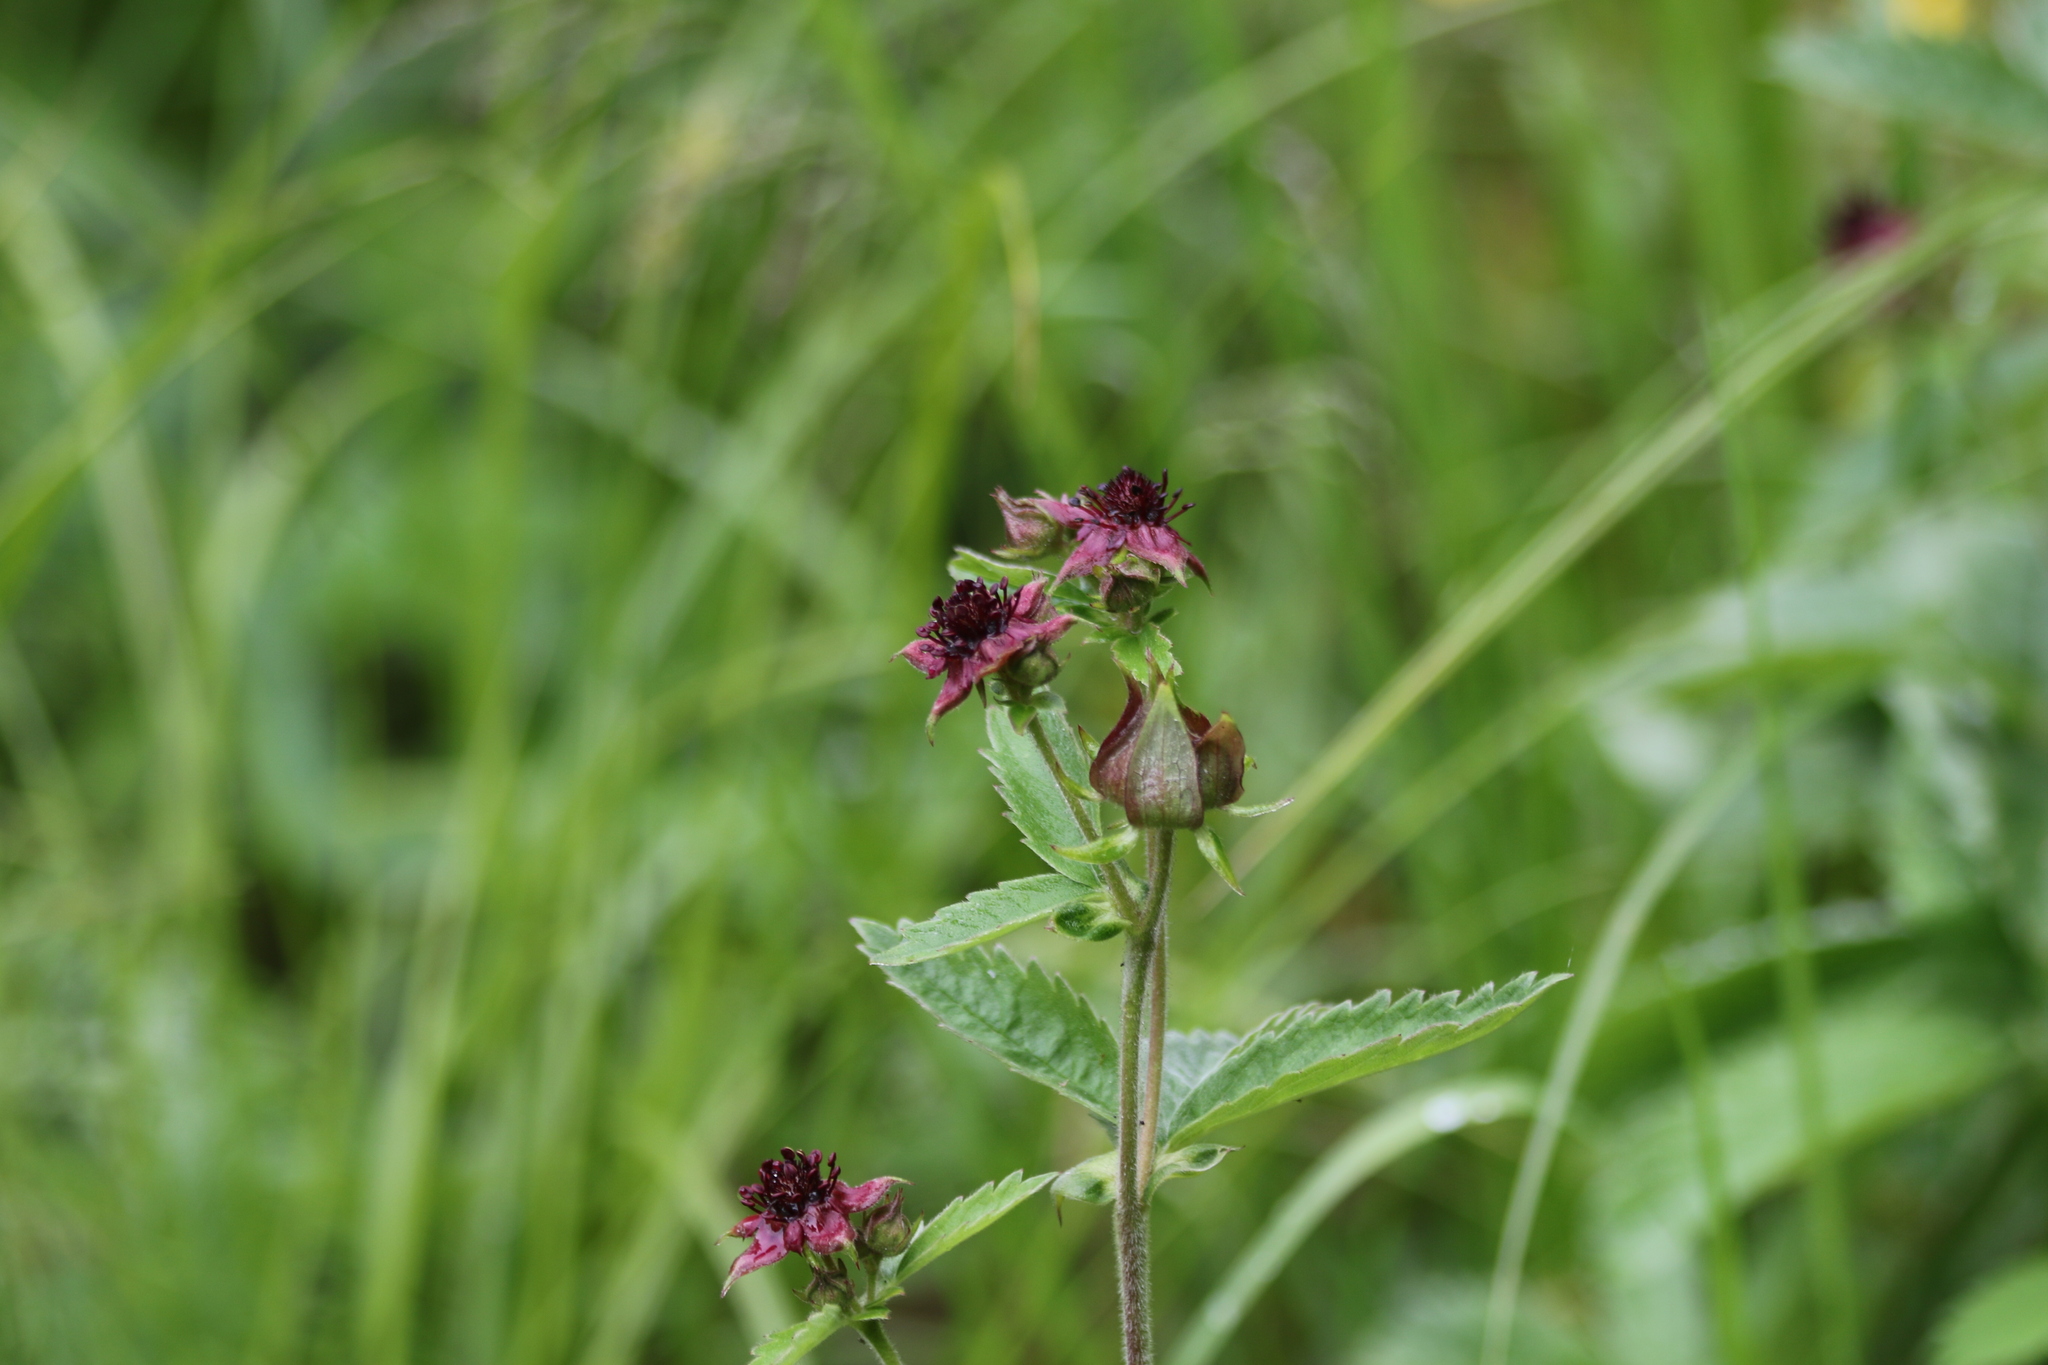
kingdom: Plantae
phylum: Tracheophyta
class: Magnoliopsida
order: Rosales
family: Rosaceae
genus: Comarum
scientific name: Comarum palustre
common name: Marsh cinquefoil
